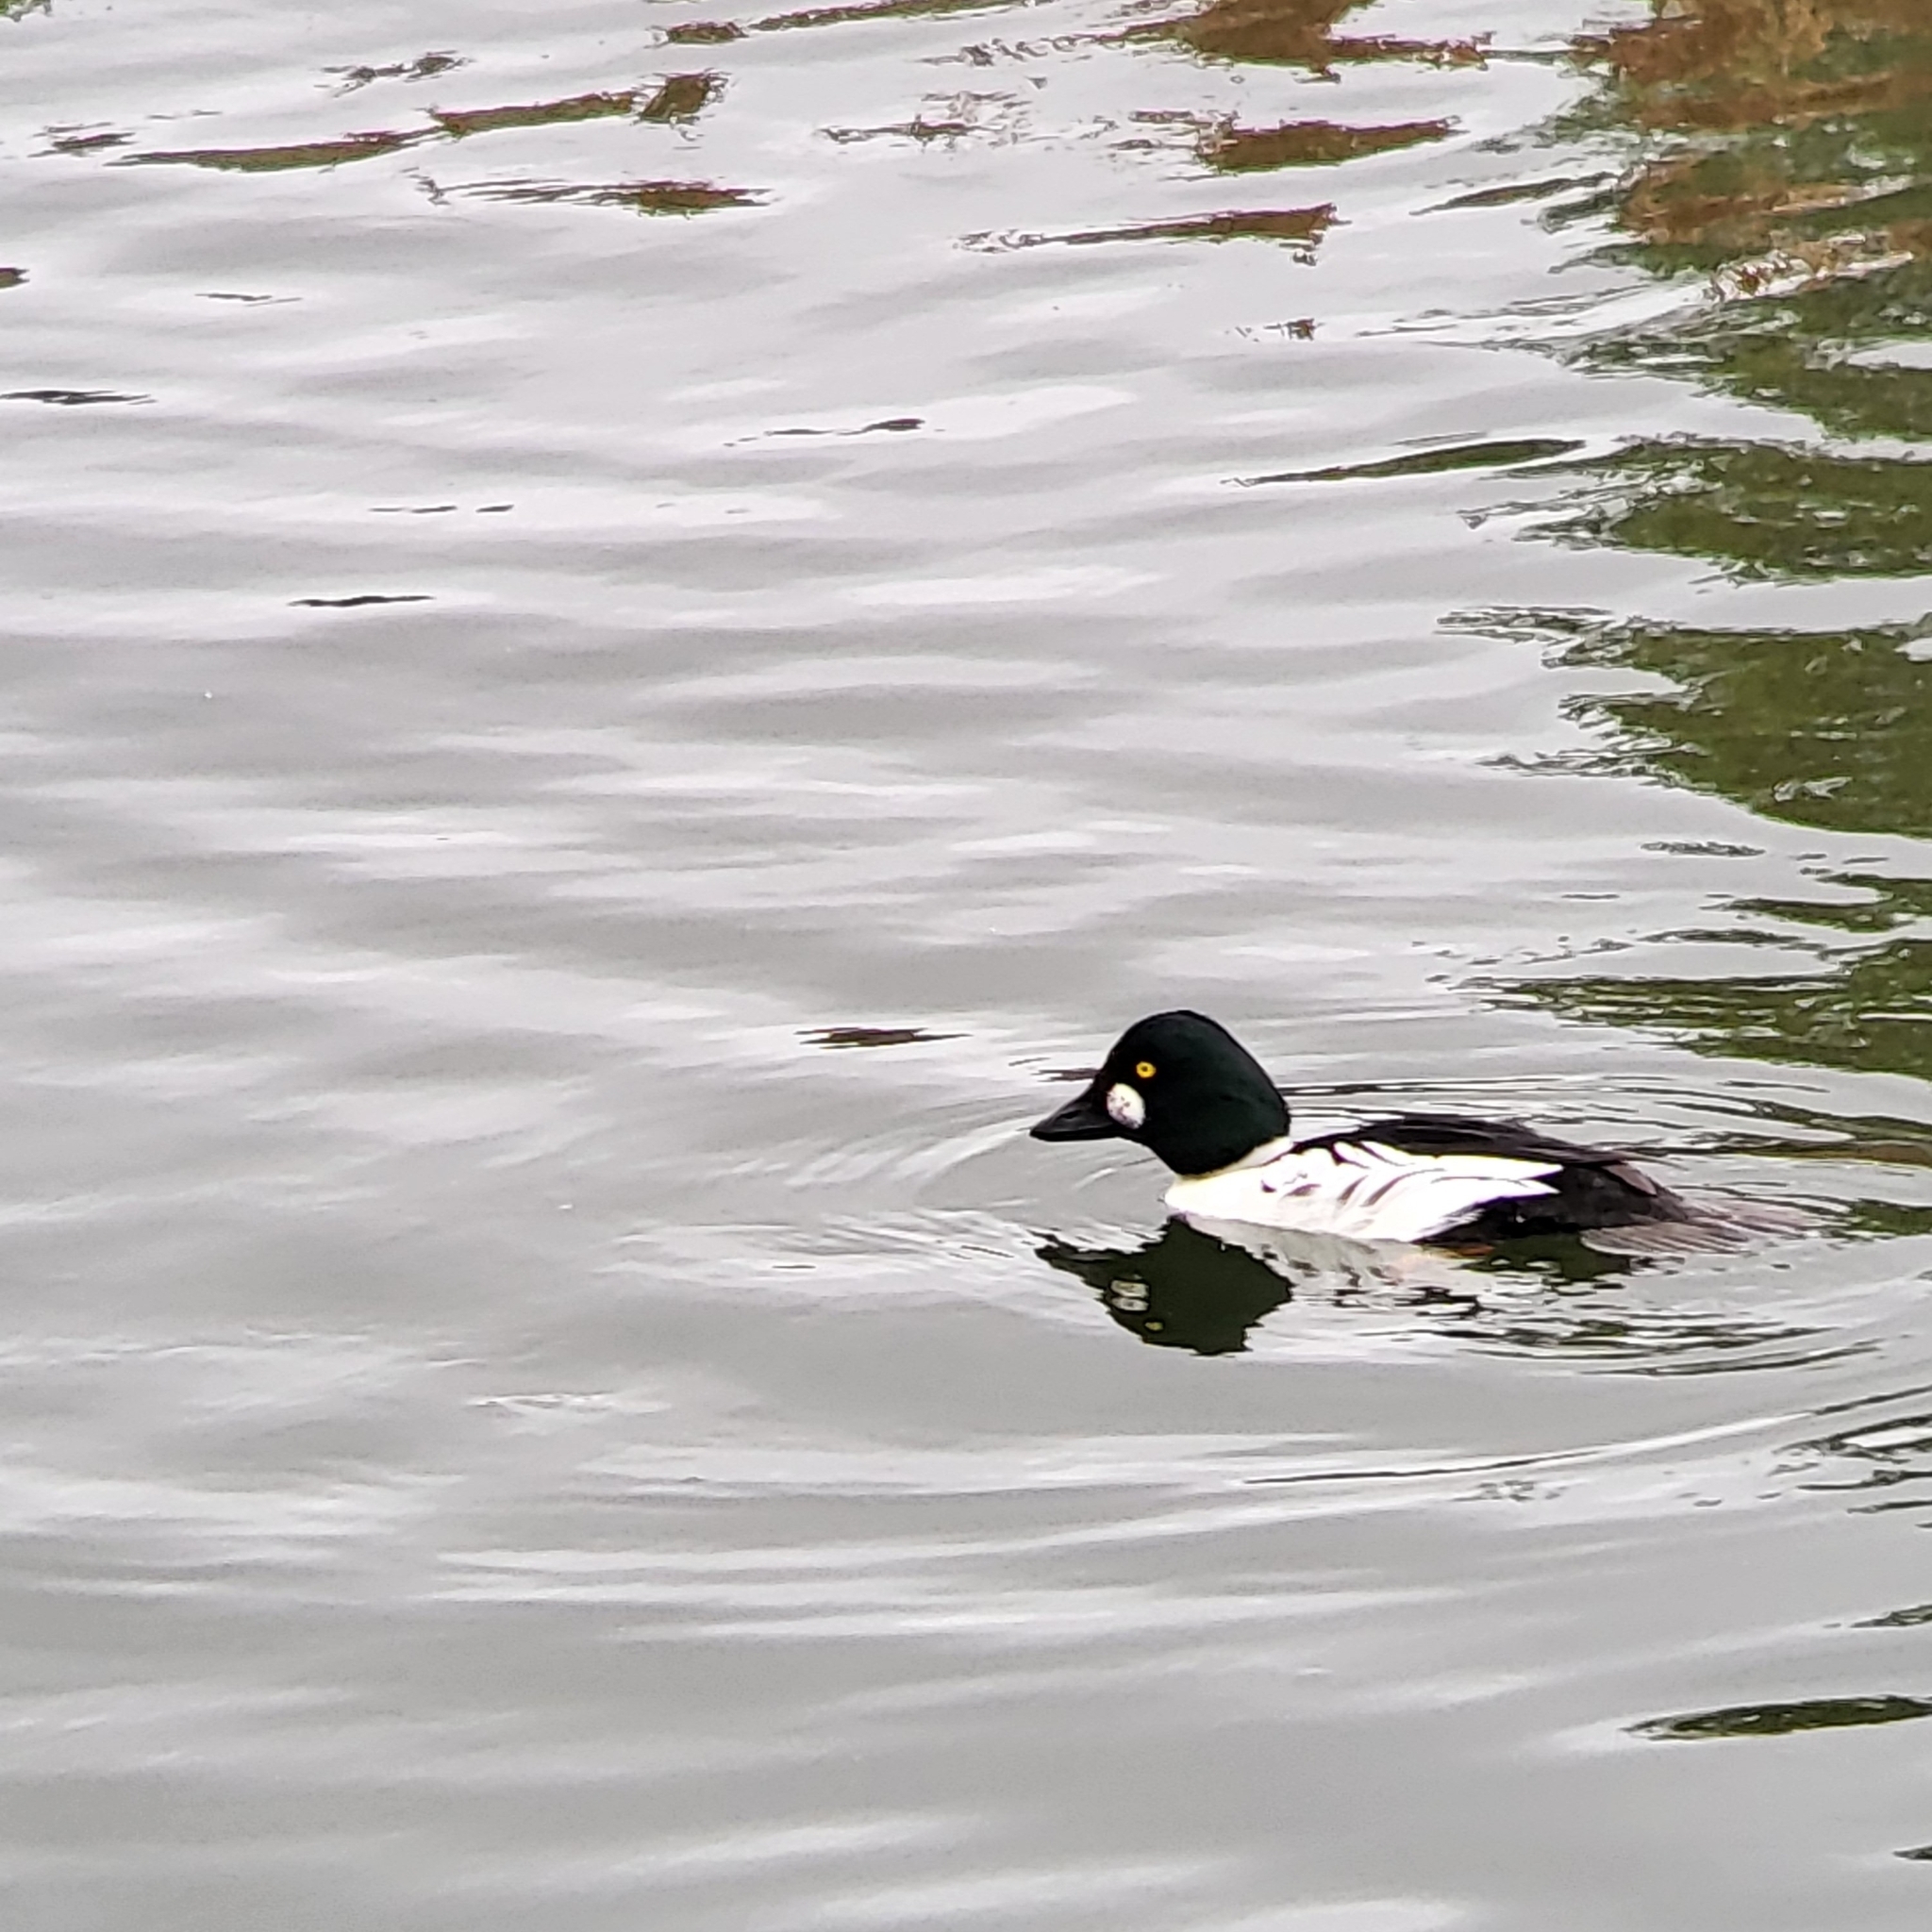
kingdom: Animalia
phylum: Chordata
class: Aves
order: Anseriformes
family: Anatidae
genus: Bucephala
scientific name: Bucephala clangula
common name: Common goldeneye
